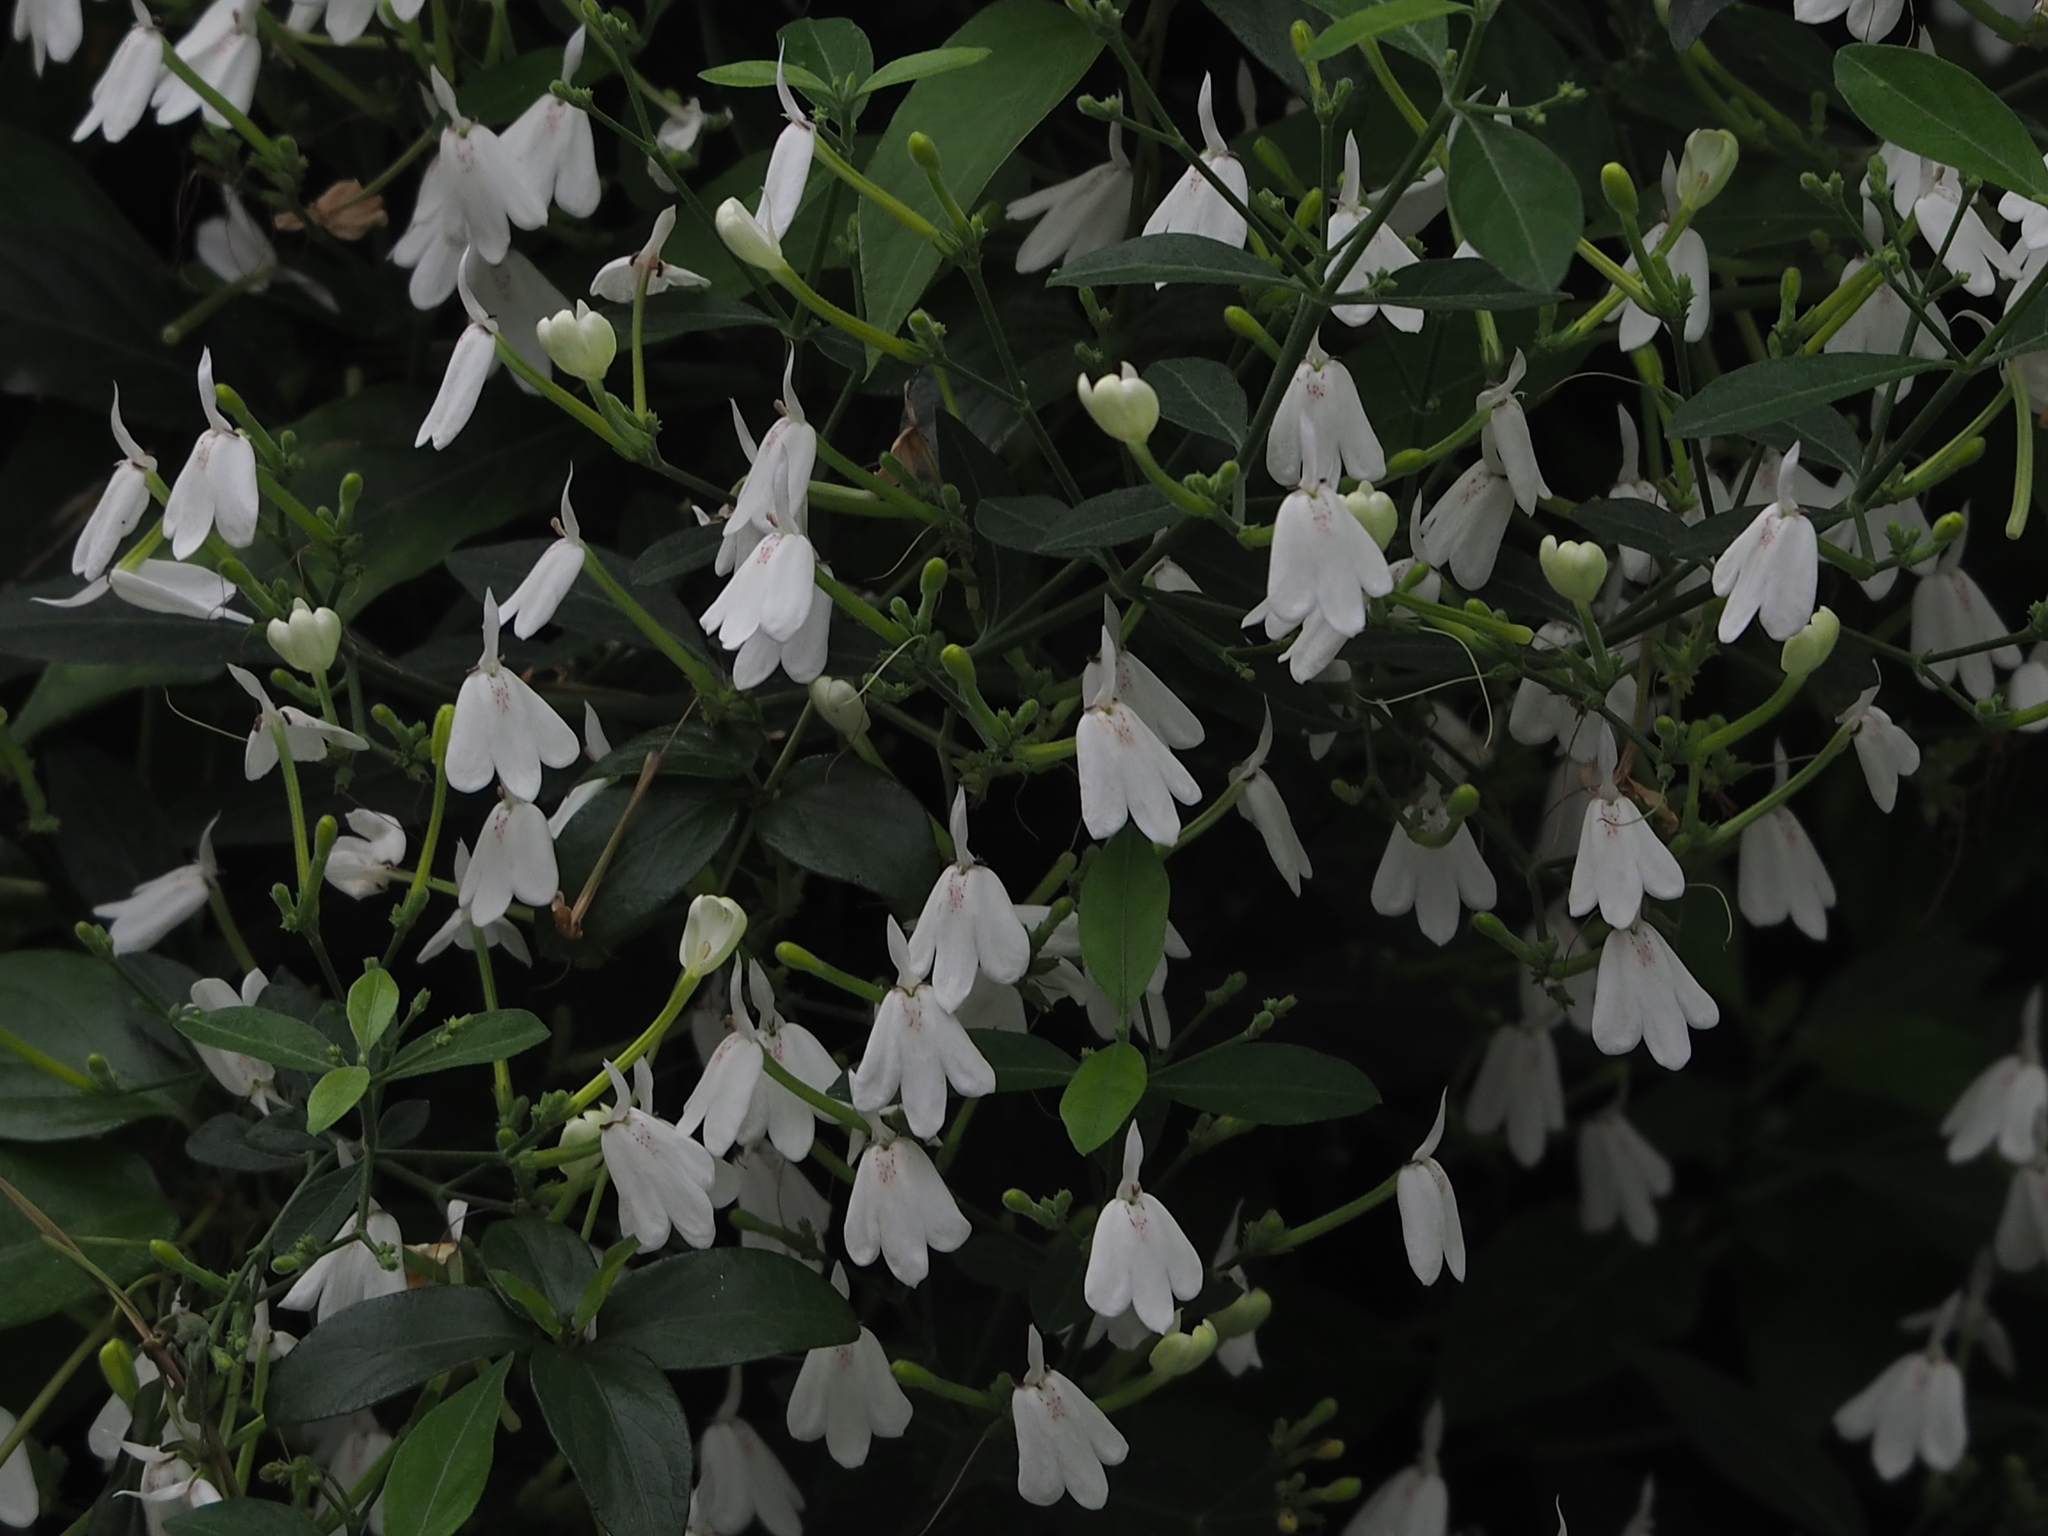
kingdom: Plantae
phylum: Tracheophyta
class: Magnoliopsida
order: Lamiales
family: Acanthaceae
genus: Rhinacanthus
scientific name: Rhinacanthus nasutus
